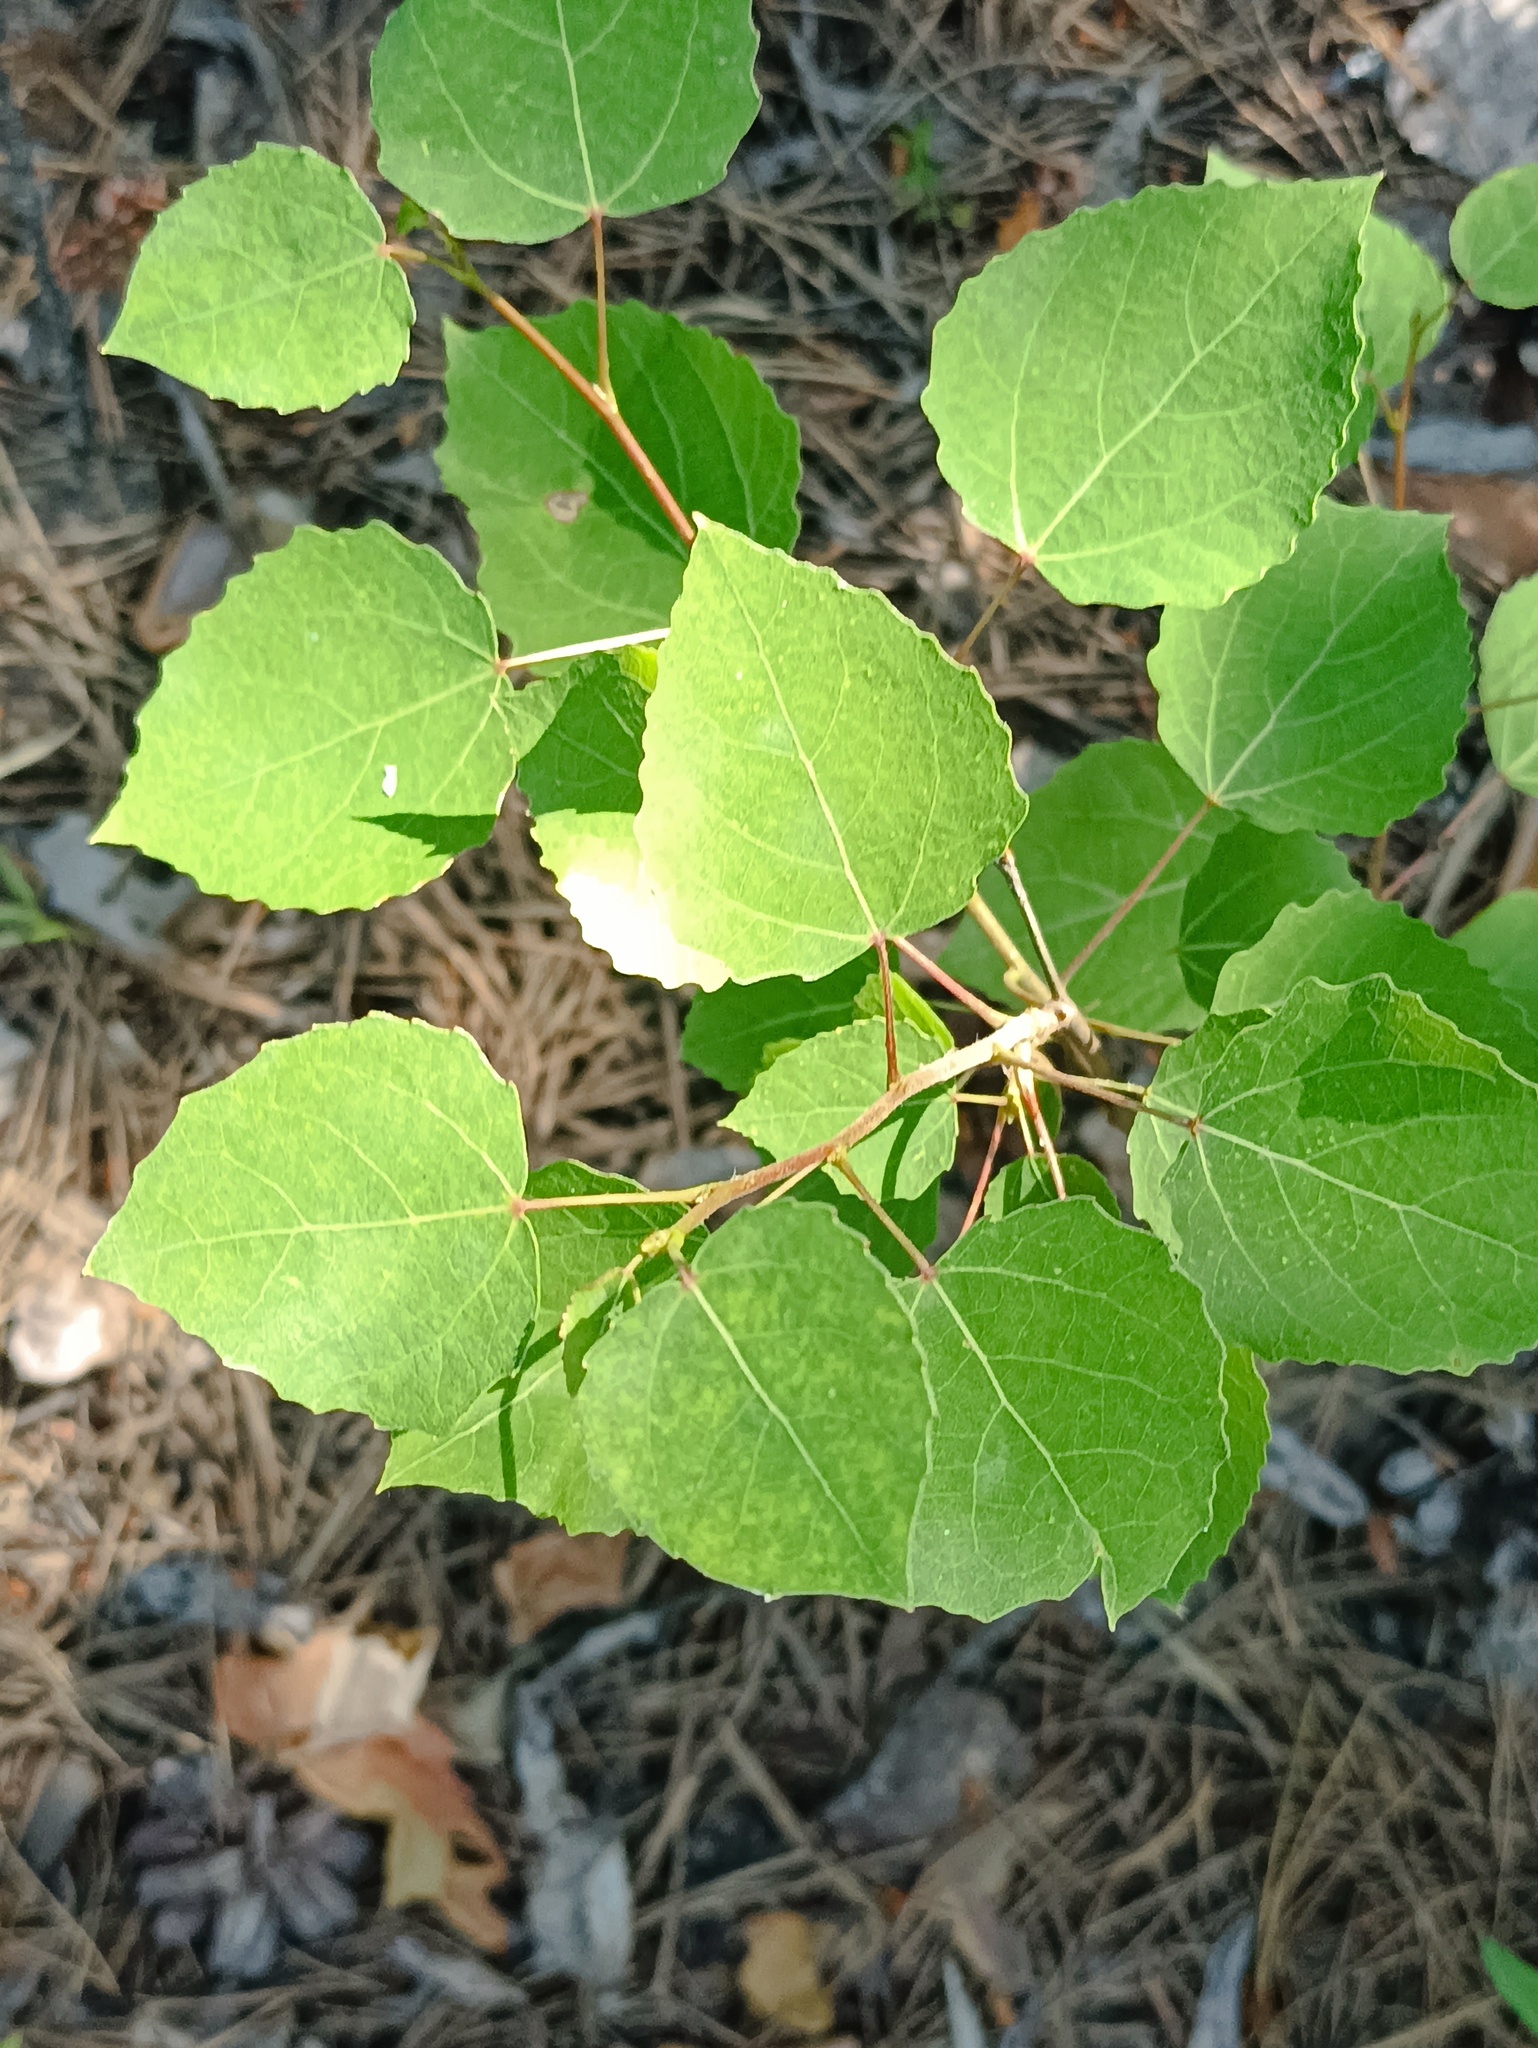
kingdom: Plantae
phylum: Tracheophyta
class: Magnoliopsida
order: Malpighiales
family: Salicaceae
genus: Populus
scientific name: Populus tremula
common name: European aspen
